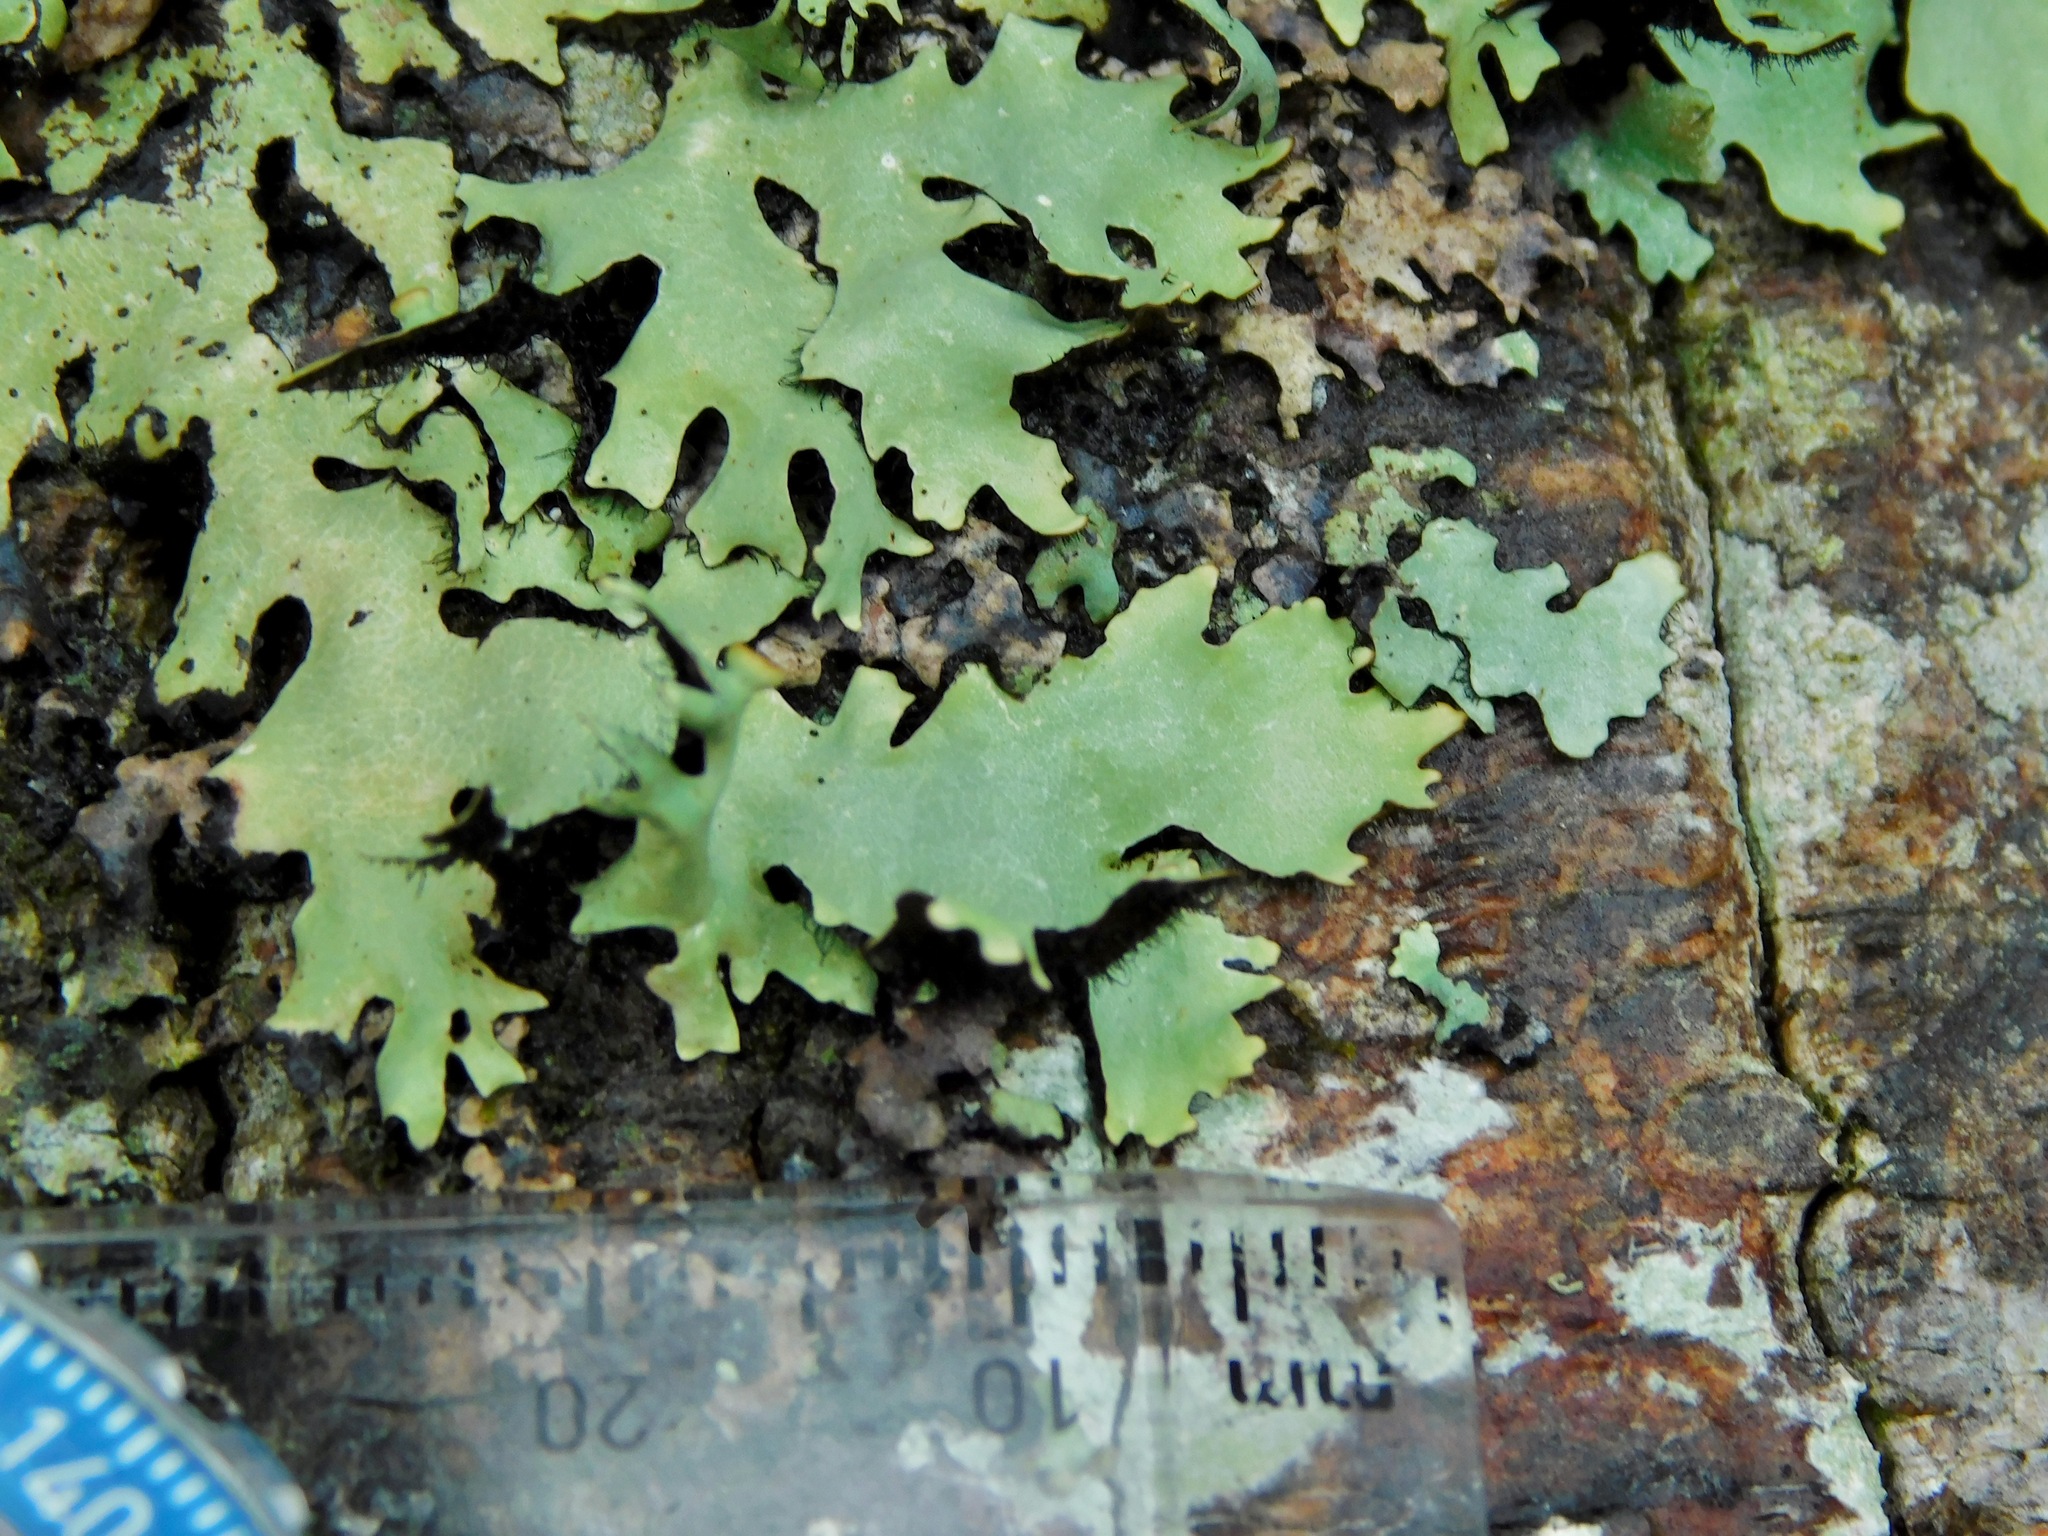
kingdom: Fungi
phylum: Ascomycota
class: Lecanoromycetes
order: Lecanorales
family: Parmeliaceae
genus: Parmotrema
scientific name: Parmotrema cetratum
